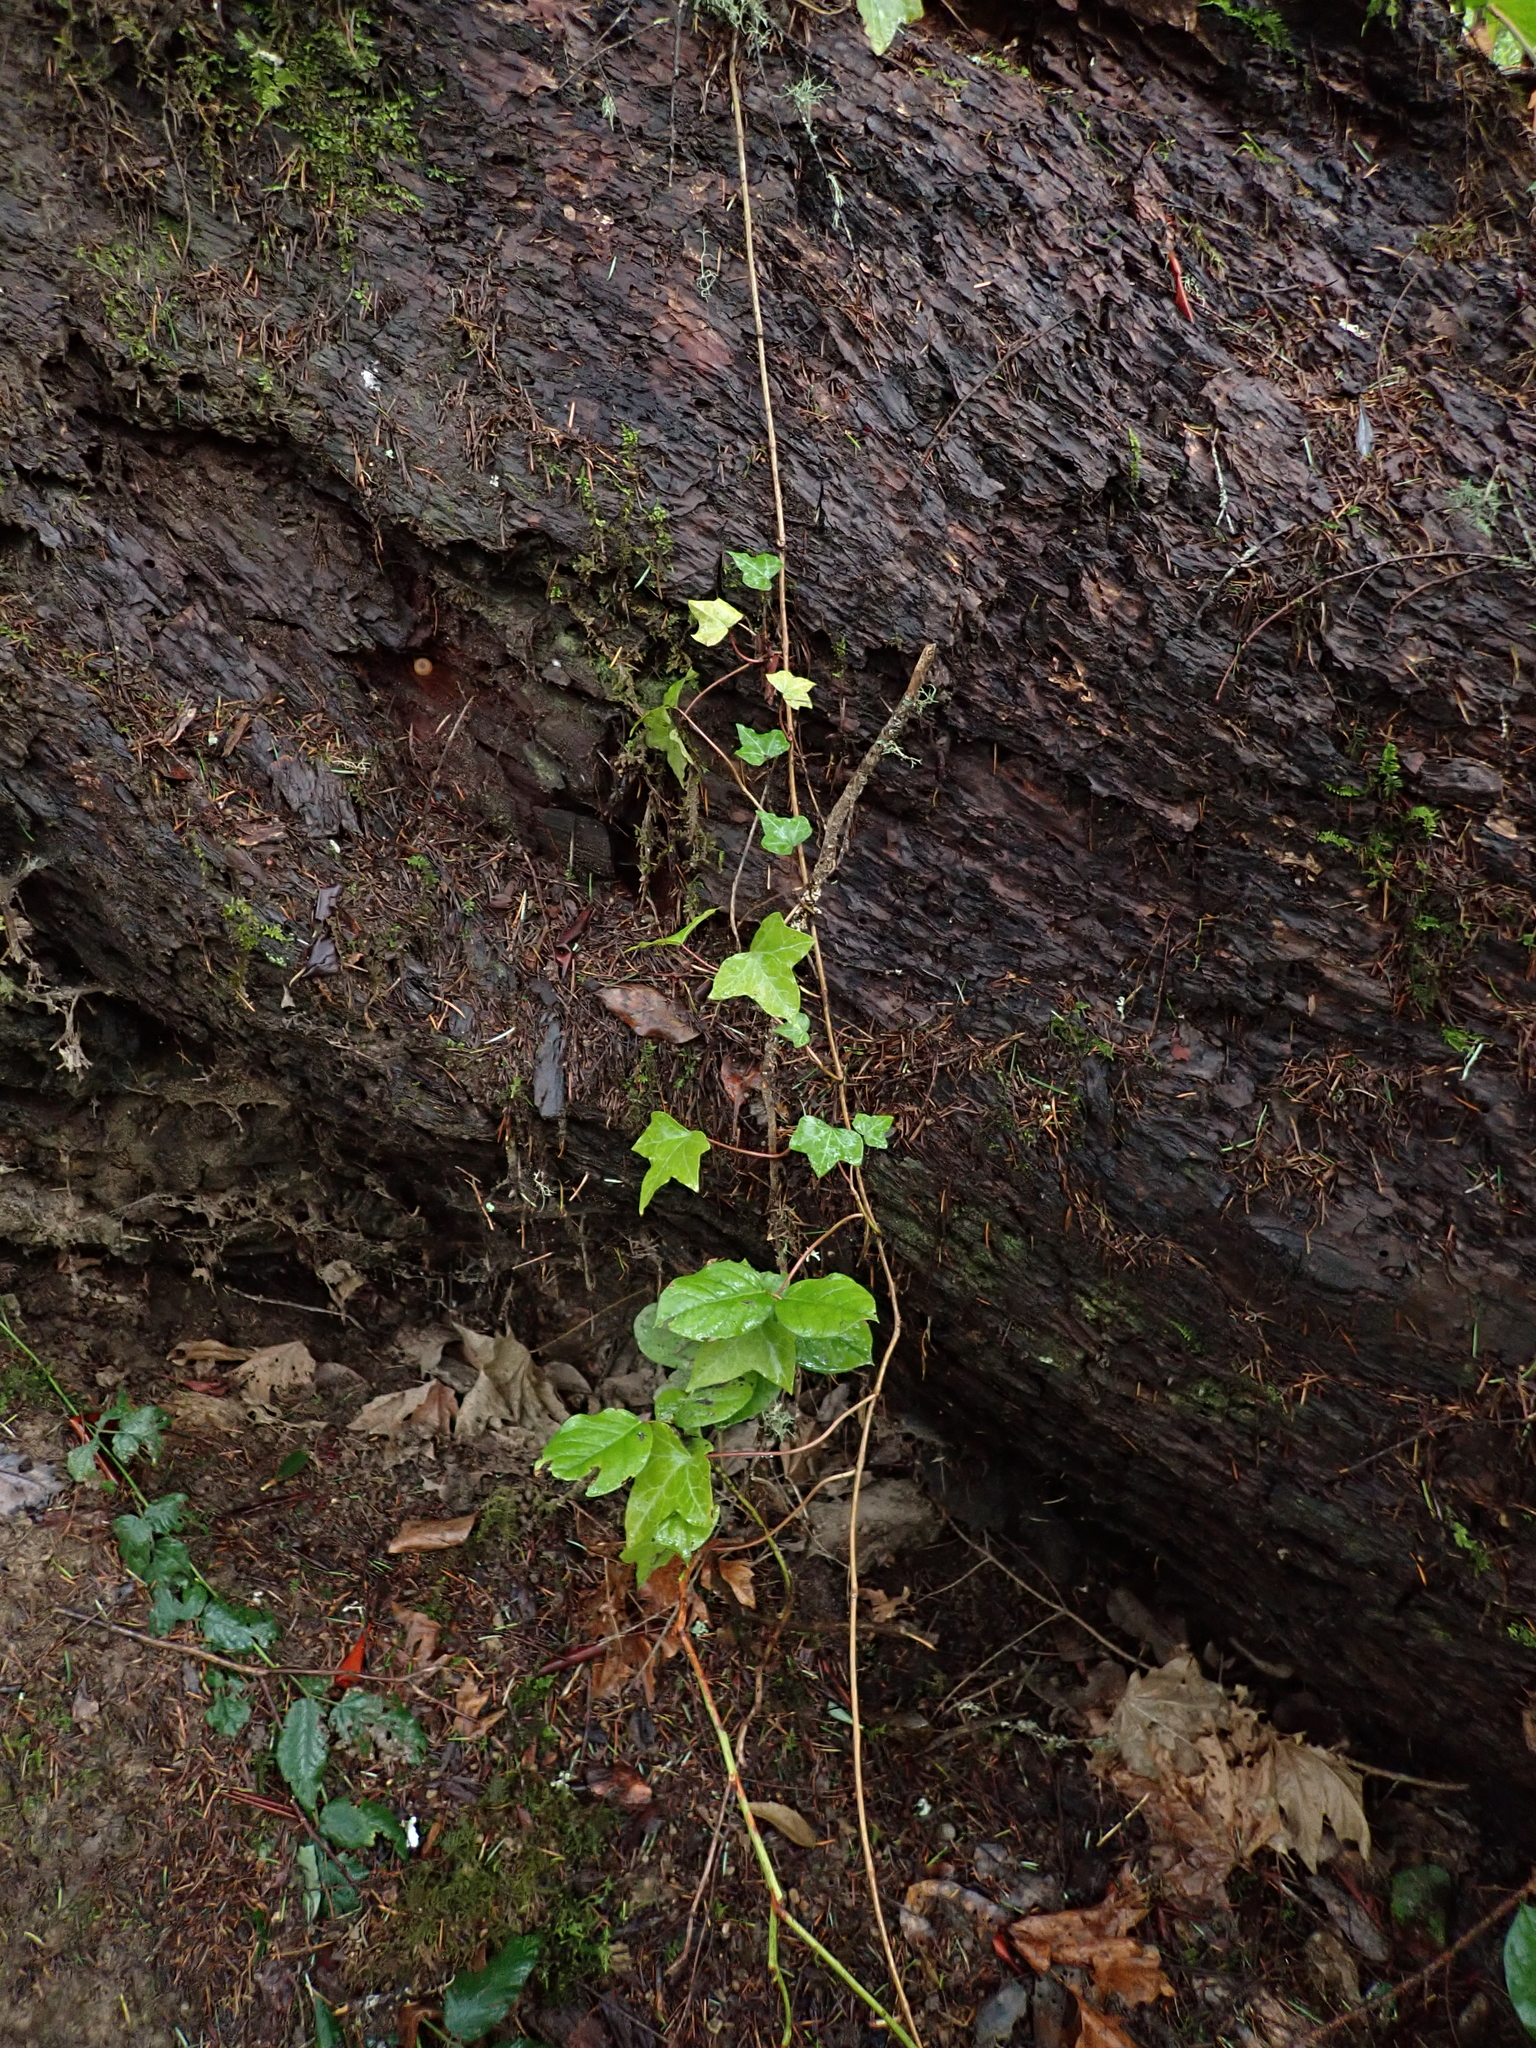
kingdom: Plantae
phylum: Tracheophyta
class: Magnoliopsida
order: Apiales
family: Araliaceae
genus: Hedera
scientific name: Hedera helix
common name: Ivy
